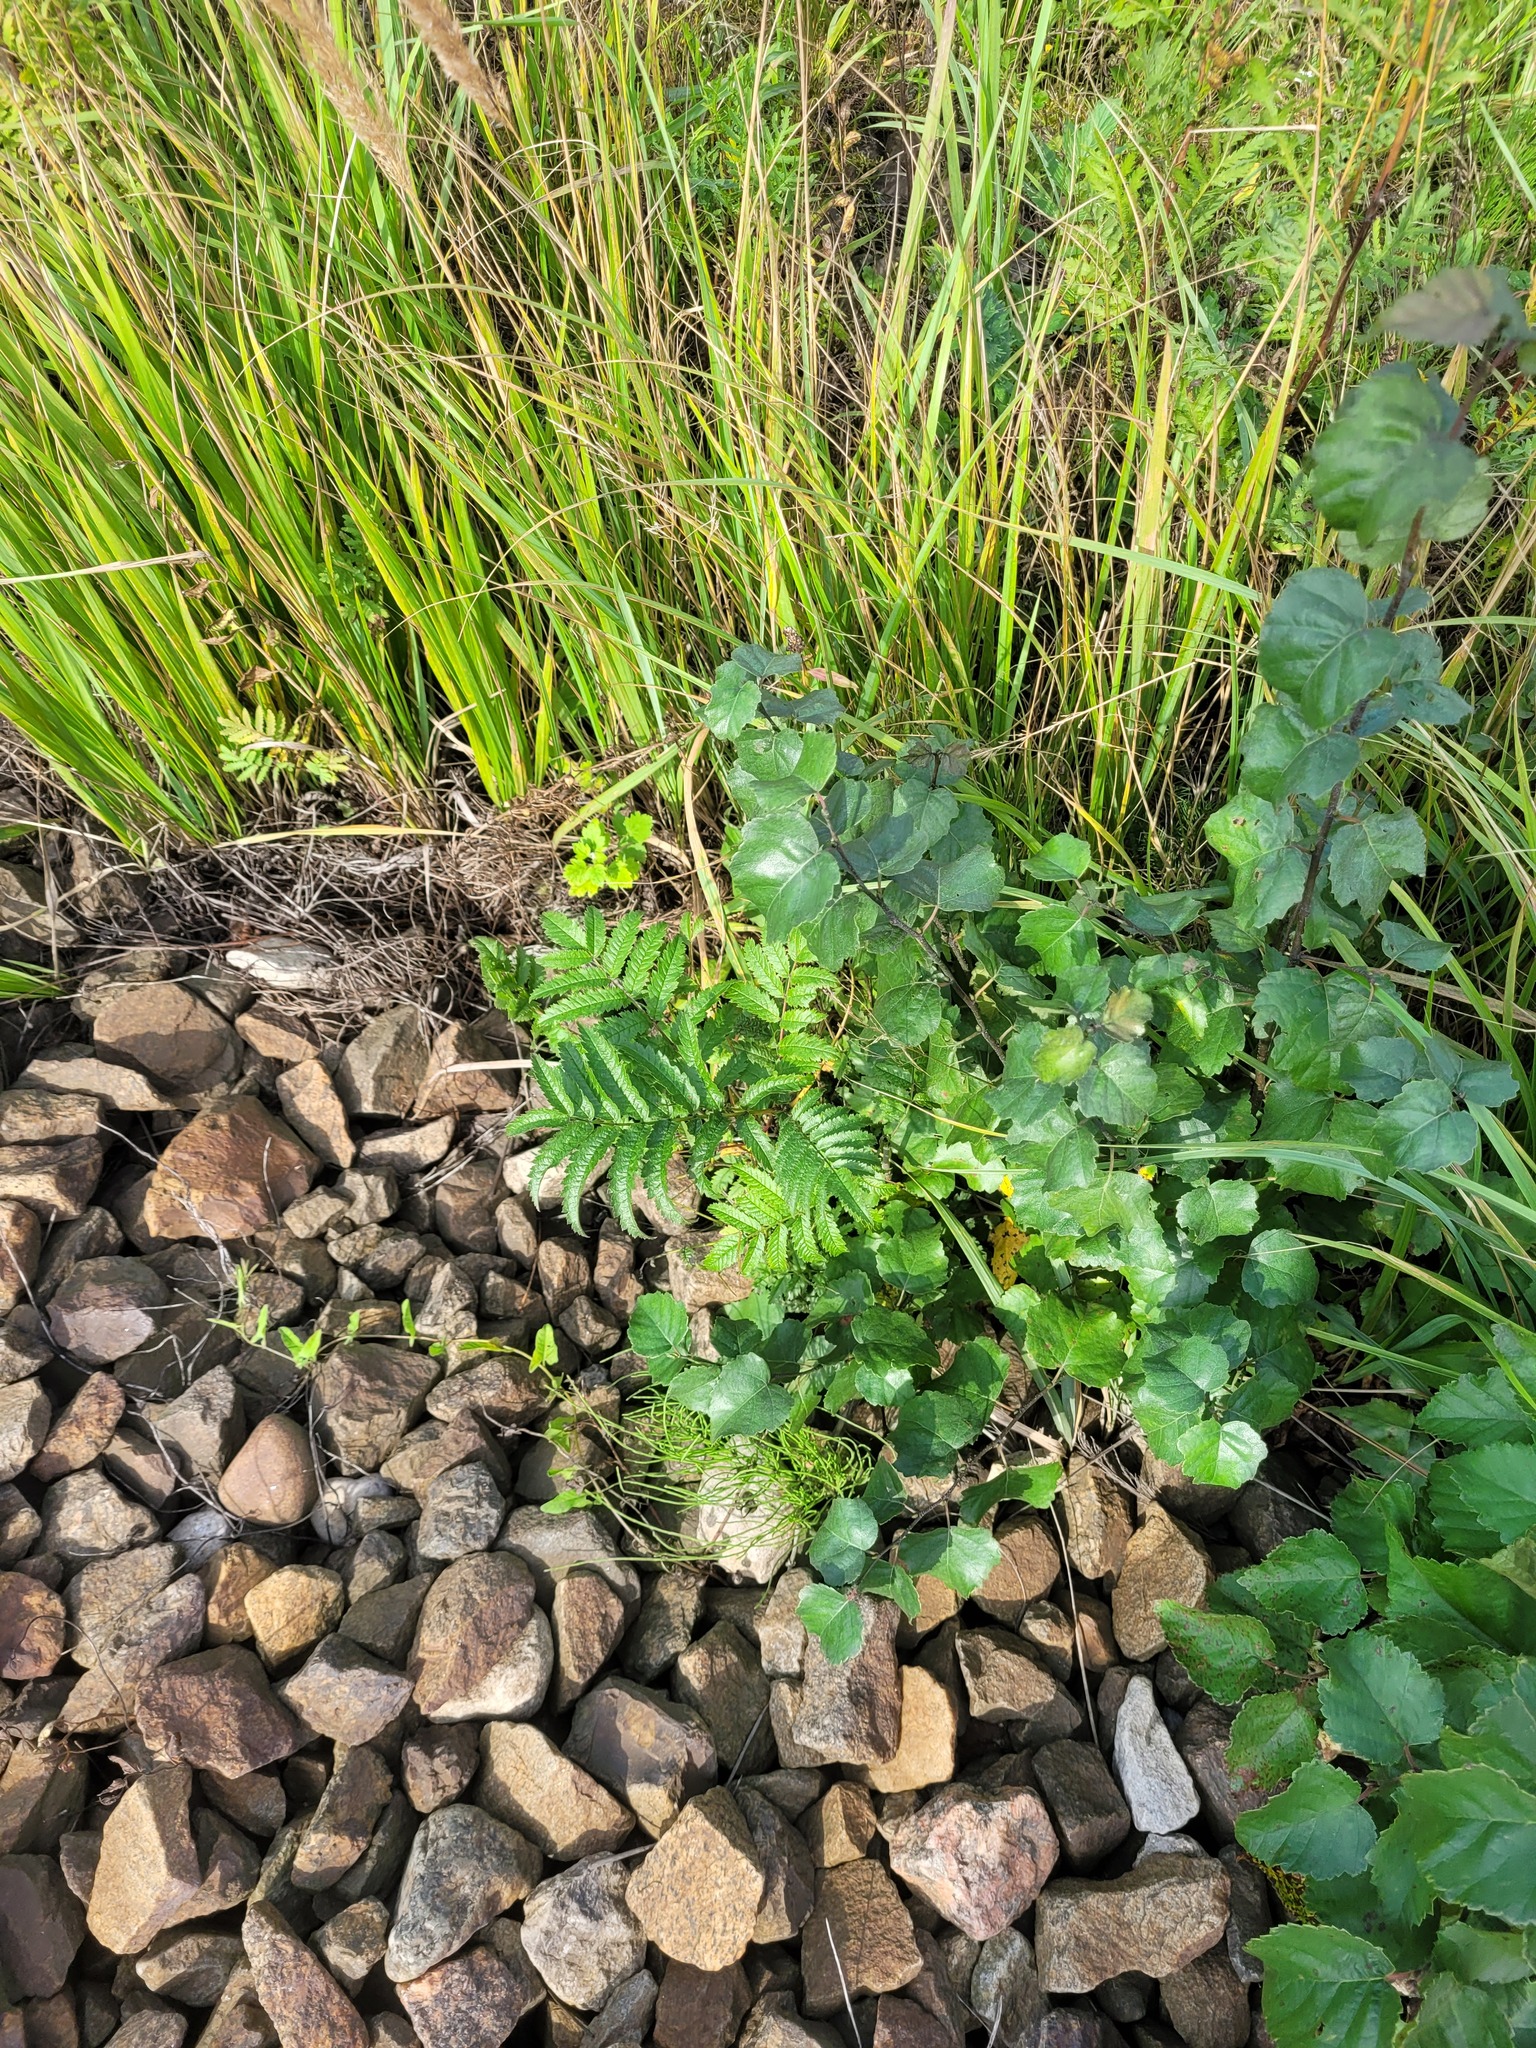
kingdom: Plantae
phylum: Tracheophyta
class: Magnoliopsida
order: Rosales
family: Rosaceae
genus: Sorbus
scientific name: Sorbus aucuparia
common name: Rowan
